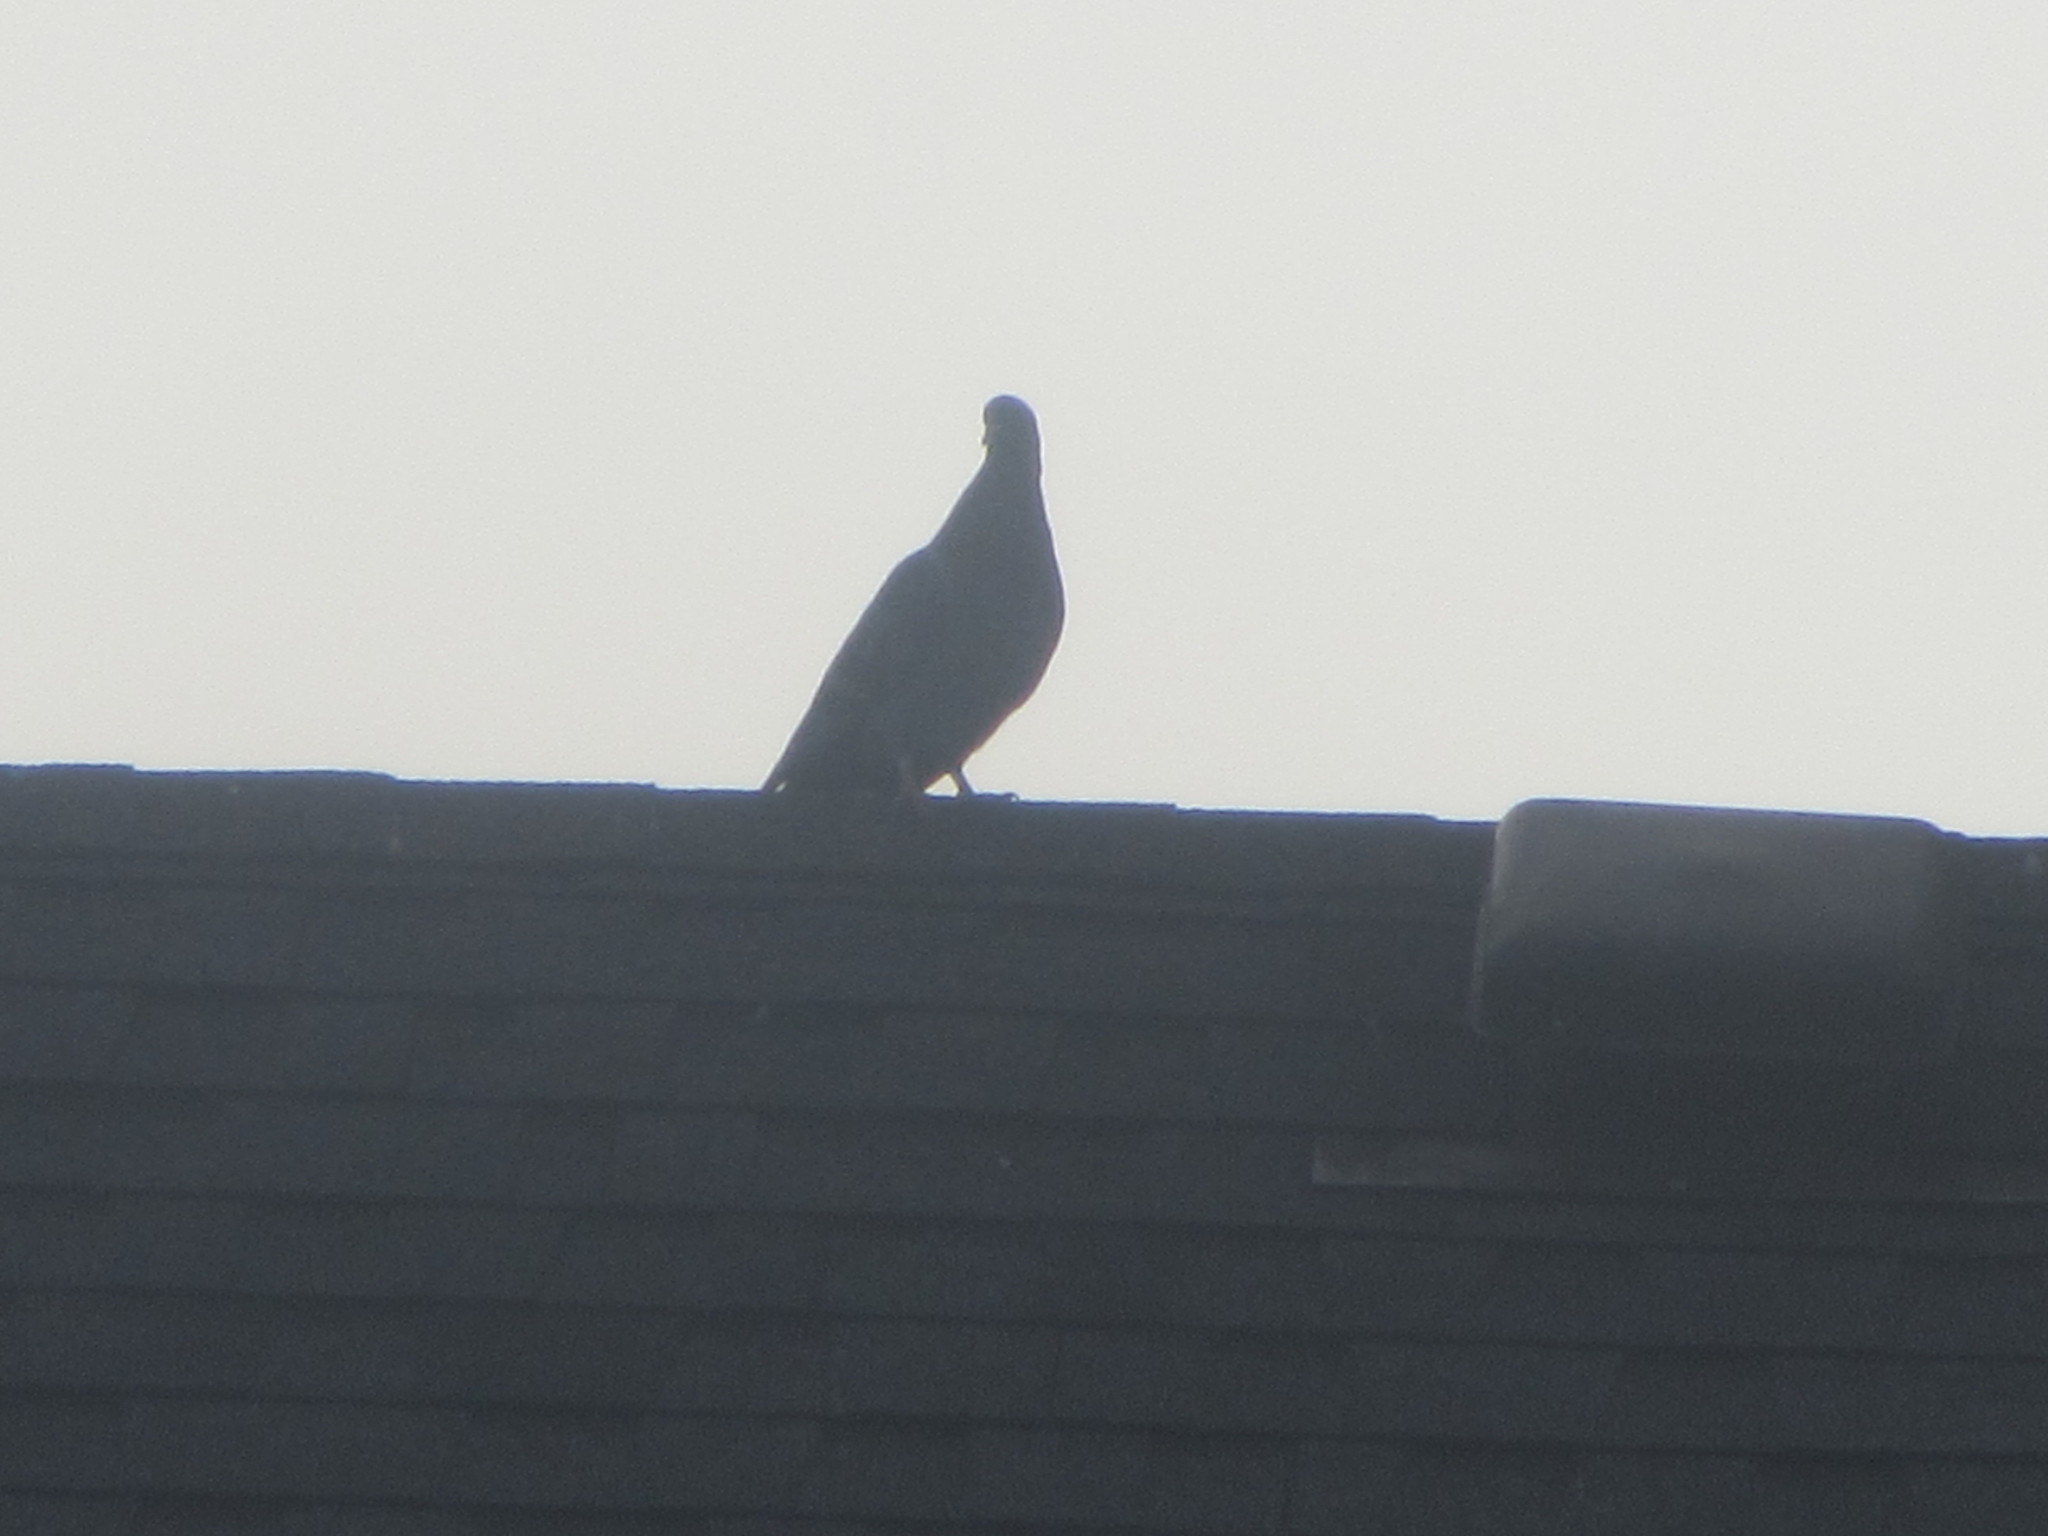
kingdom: Animalia
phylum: Chordata
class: Aves
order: Columbiformes
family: Columbidae
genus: Columba
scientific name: Columba livia
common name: Rock pigeon
